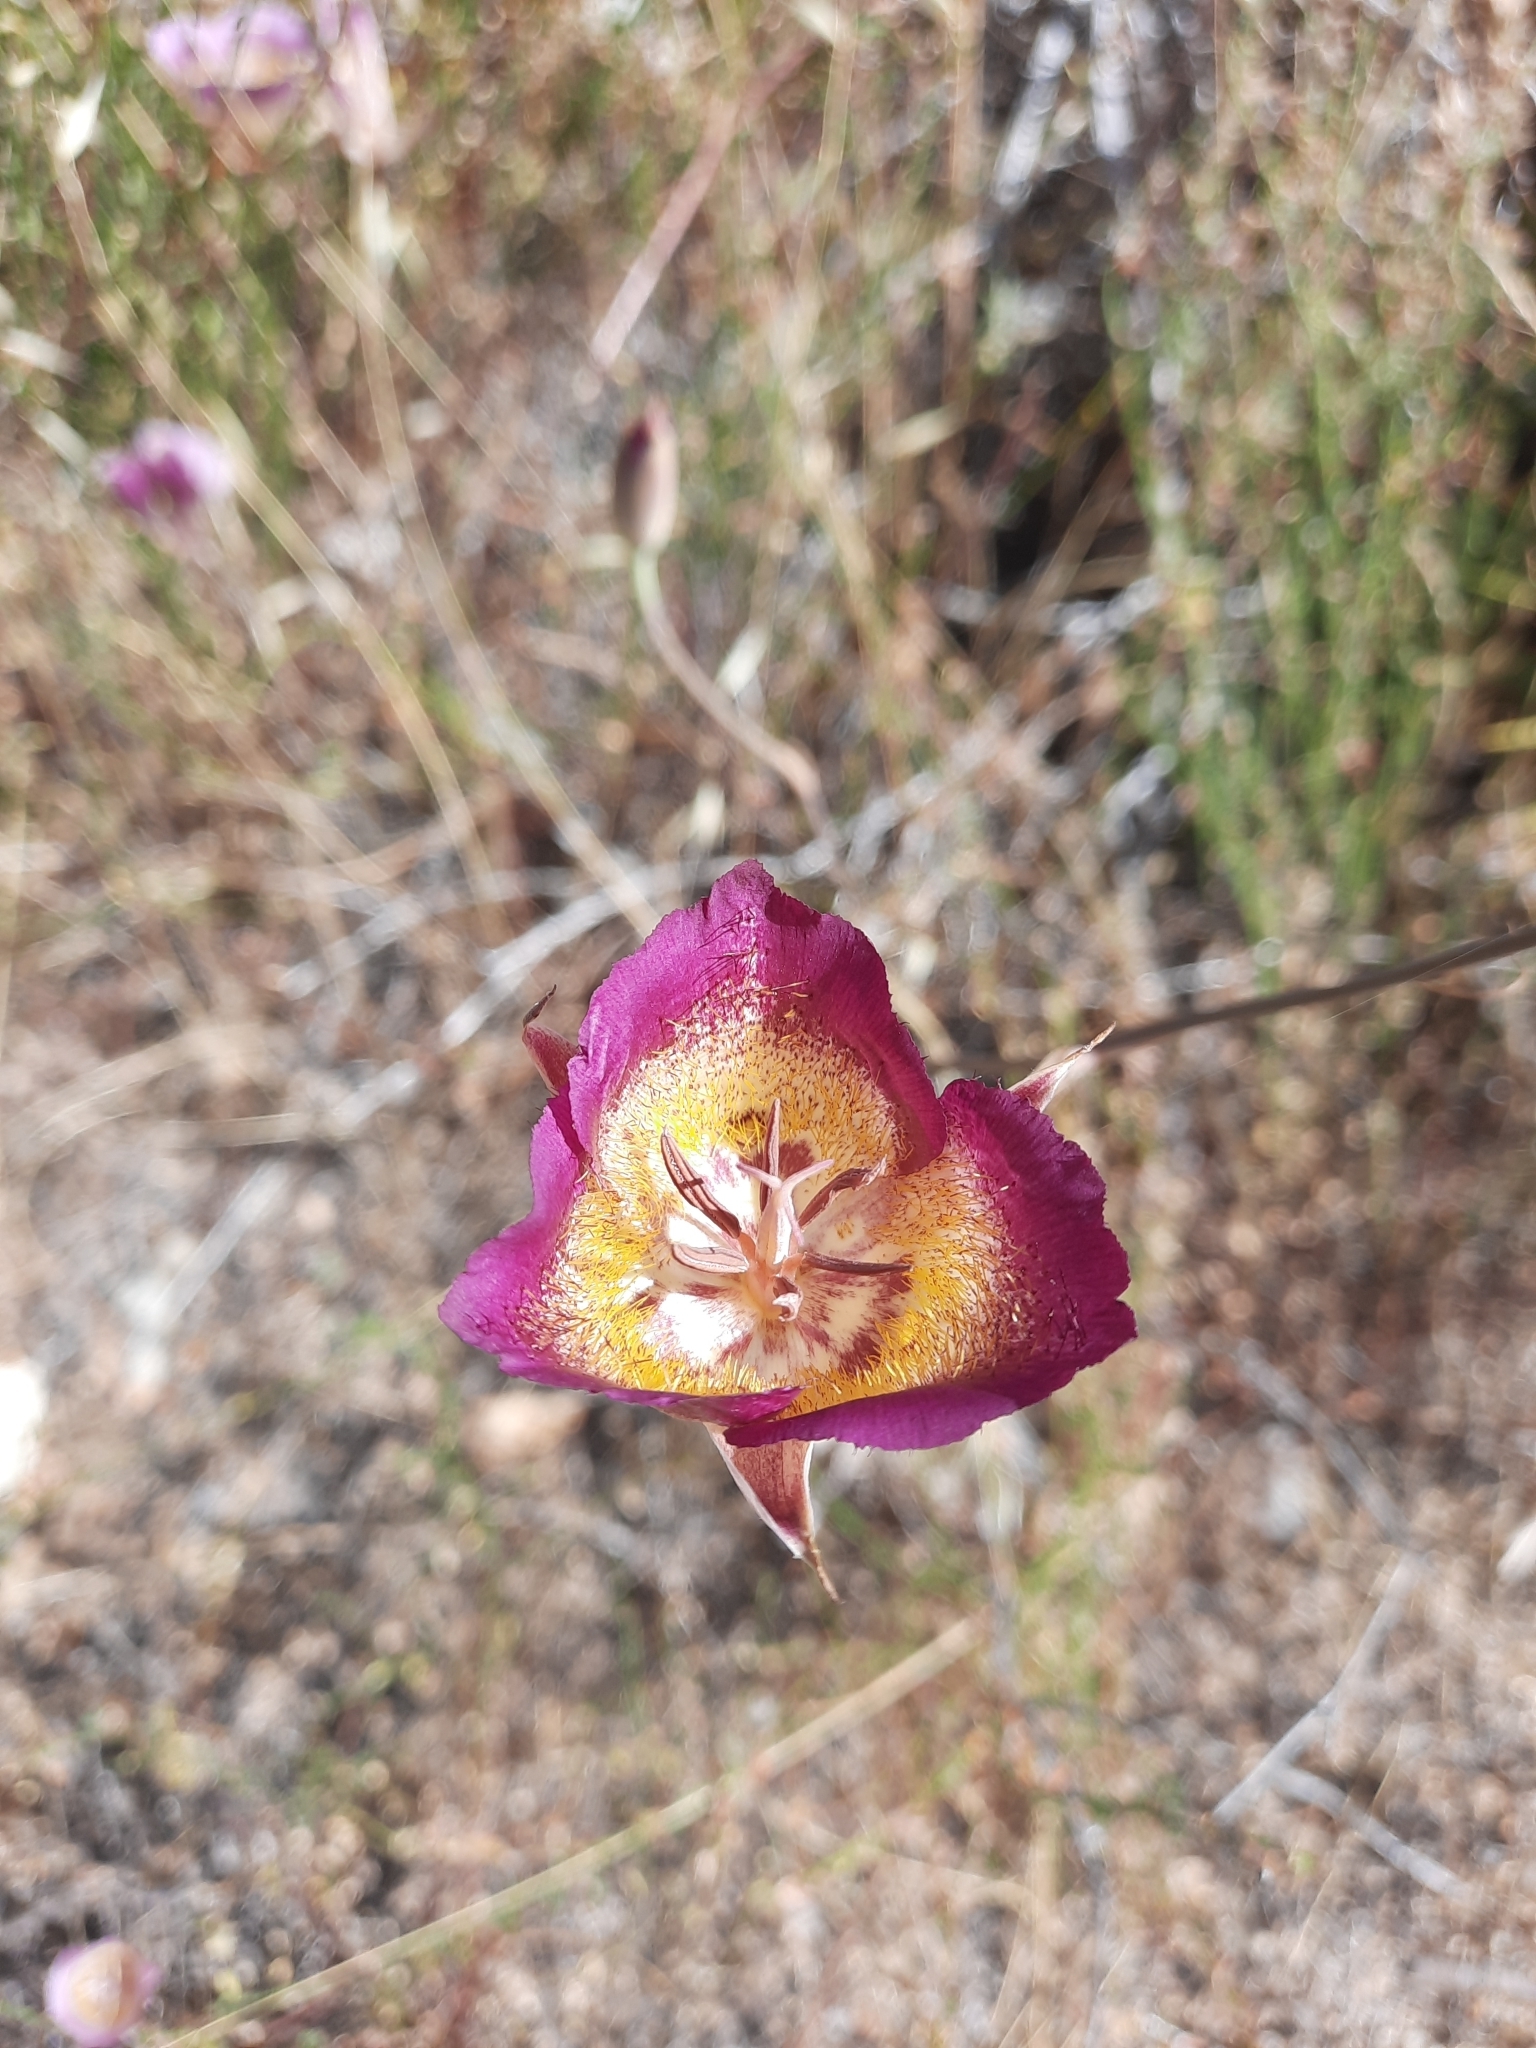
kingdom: Plantae
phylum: Tracheophyta
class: Liliopsida
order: Liliales
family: Liliaceae
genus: Calochortus
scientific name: Calochortus plummerae
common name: Plummer's mariposa-lily
